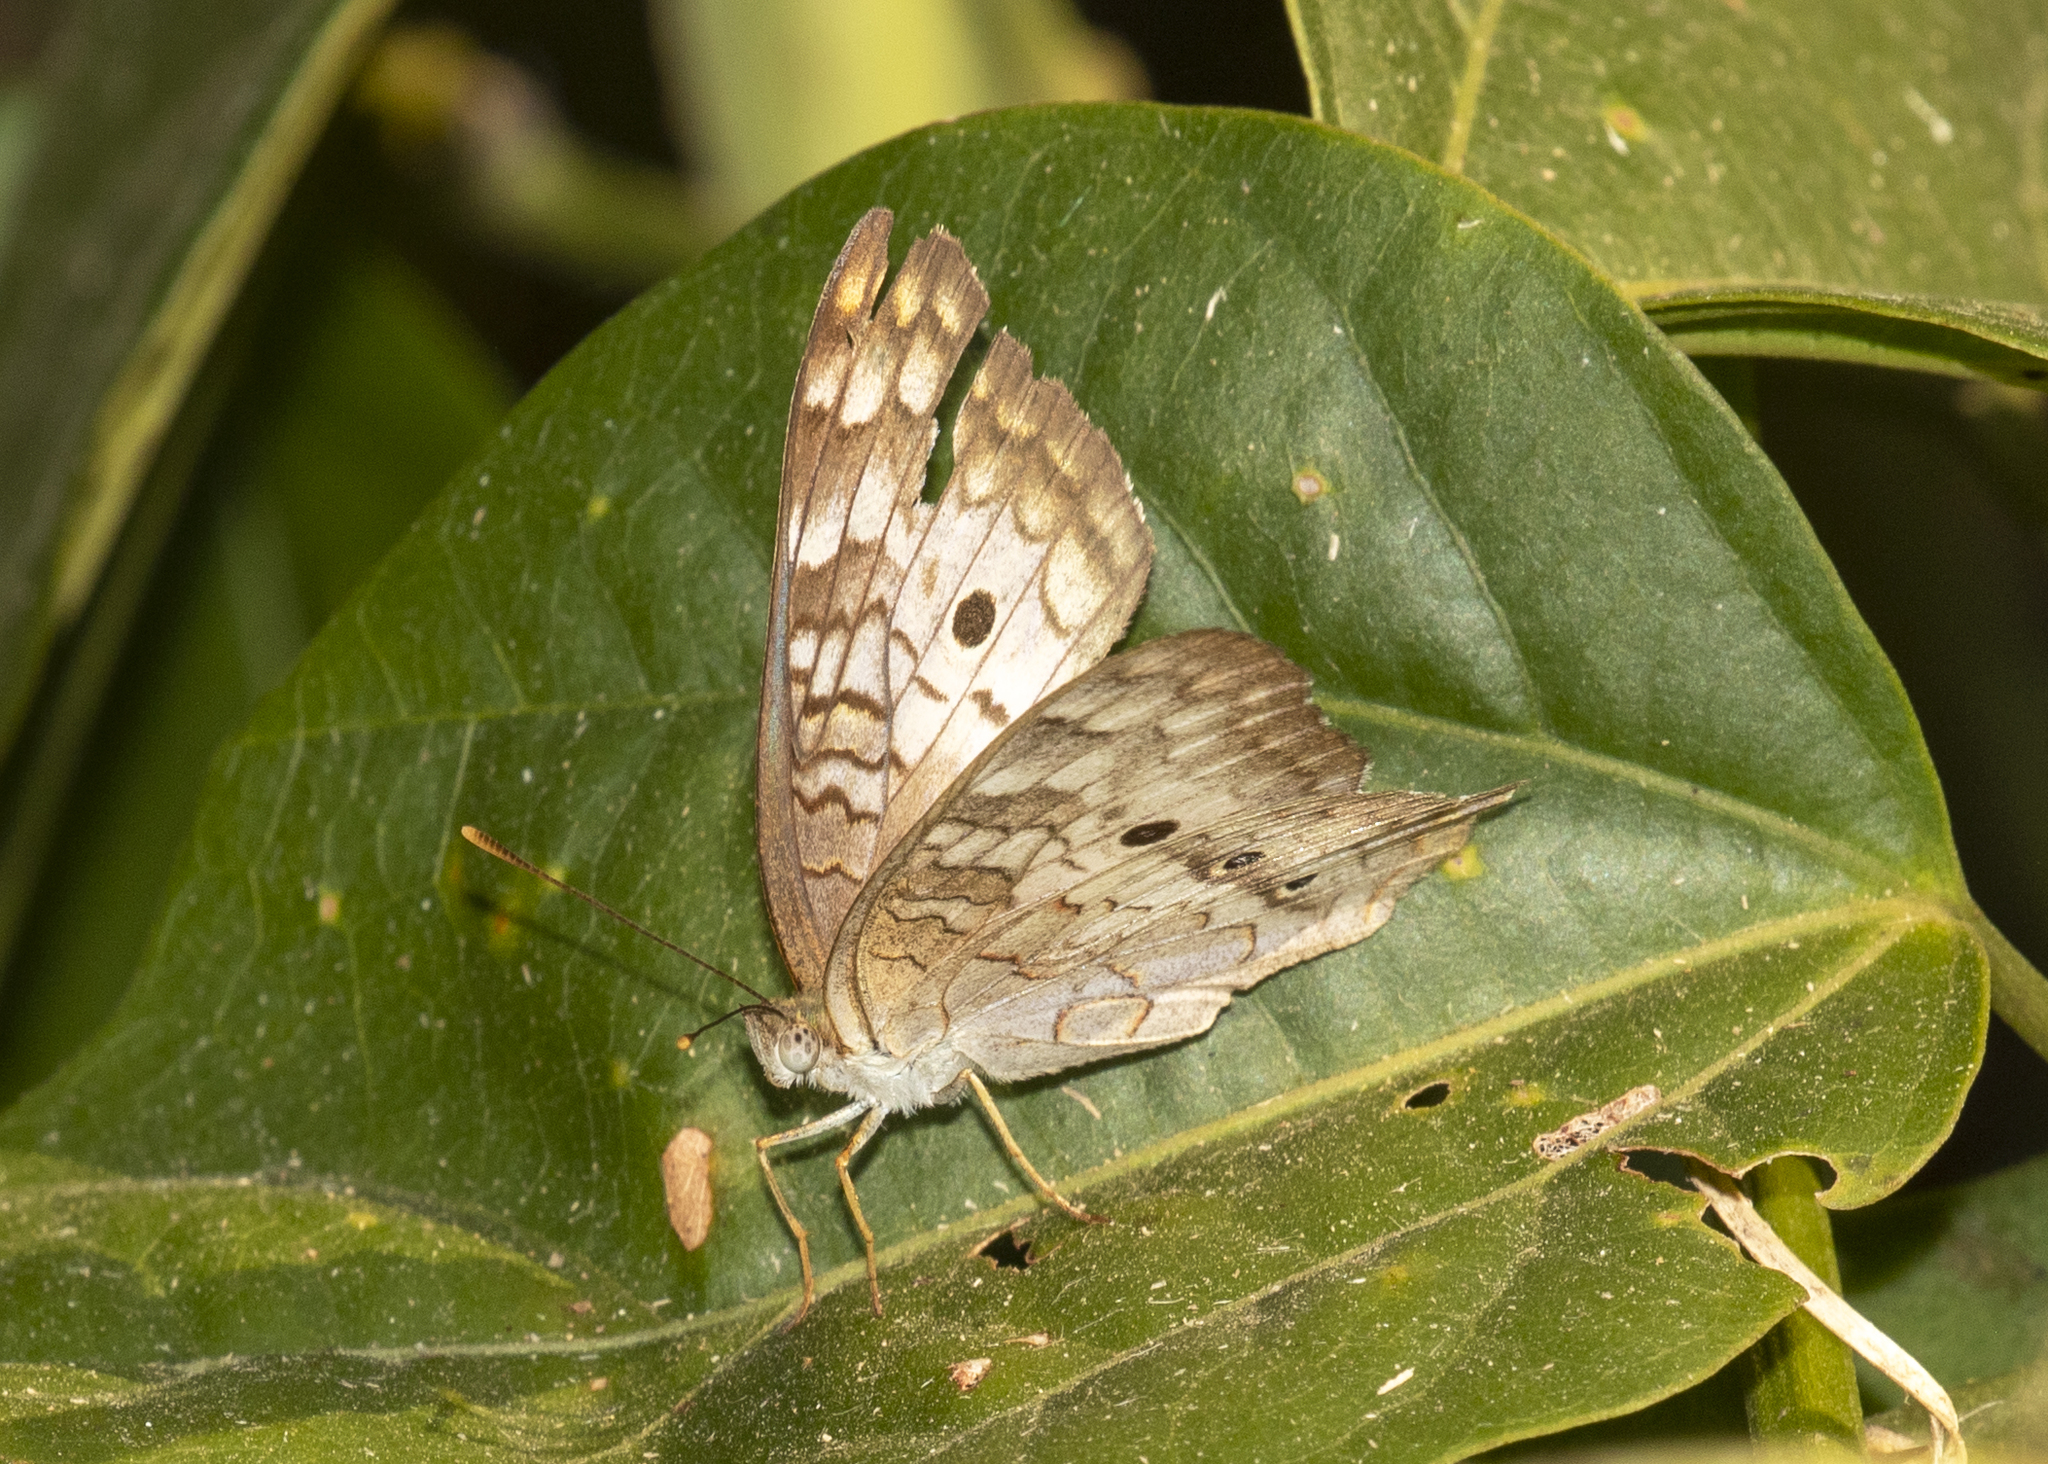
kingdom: Animalia
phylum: Arthropoda
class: Insecta
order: Lepidoptera
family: Nymphalidae
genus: Anartia
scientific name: Anartia jatrophae
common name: White peacock
